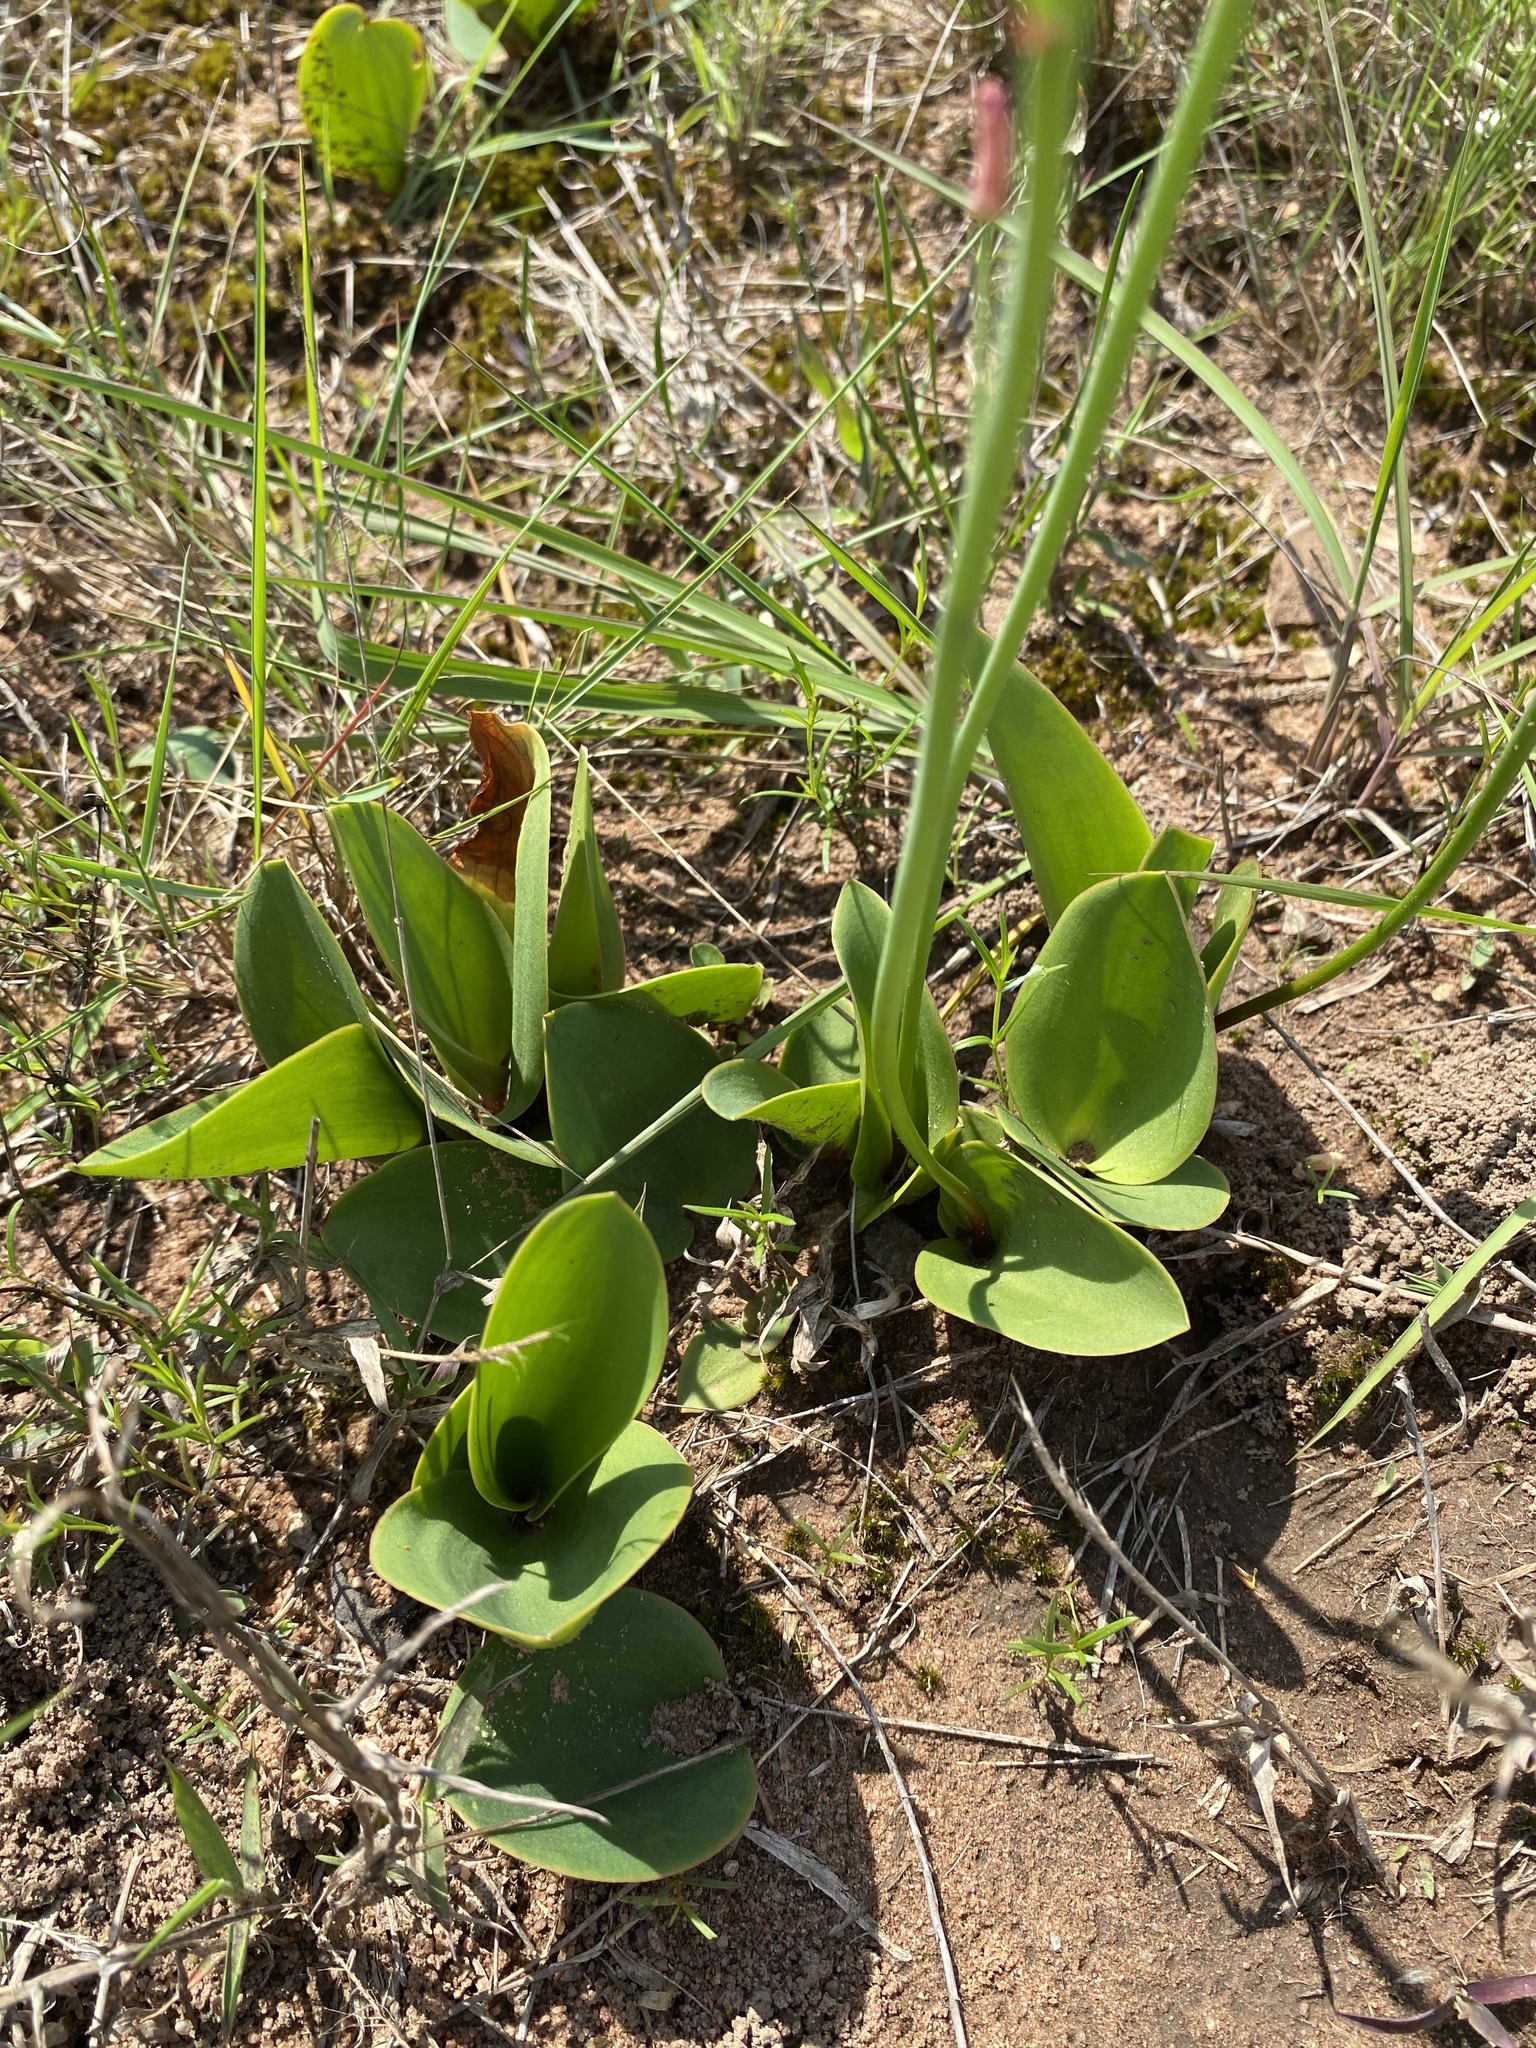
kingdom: Plantae
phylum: Tracheophyta
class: Liliopsida
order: Asparagales
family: Asparagaceae
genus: Eriospermum
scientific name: Eriospermum mackenii
